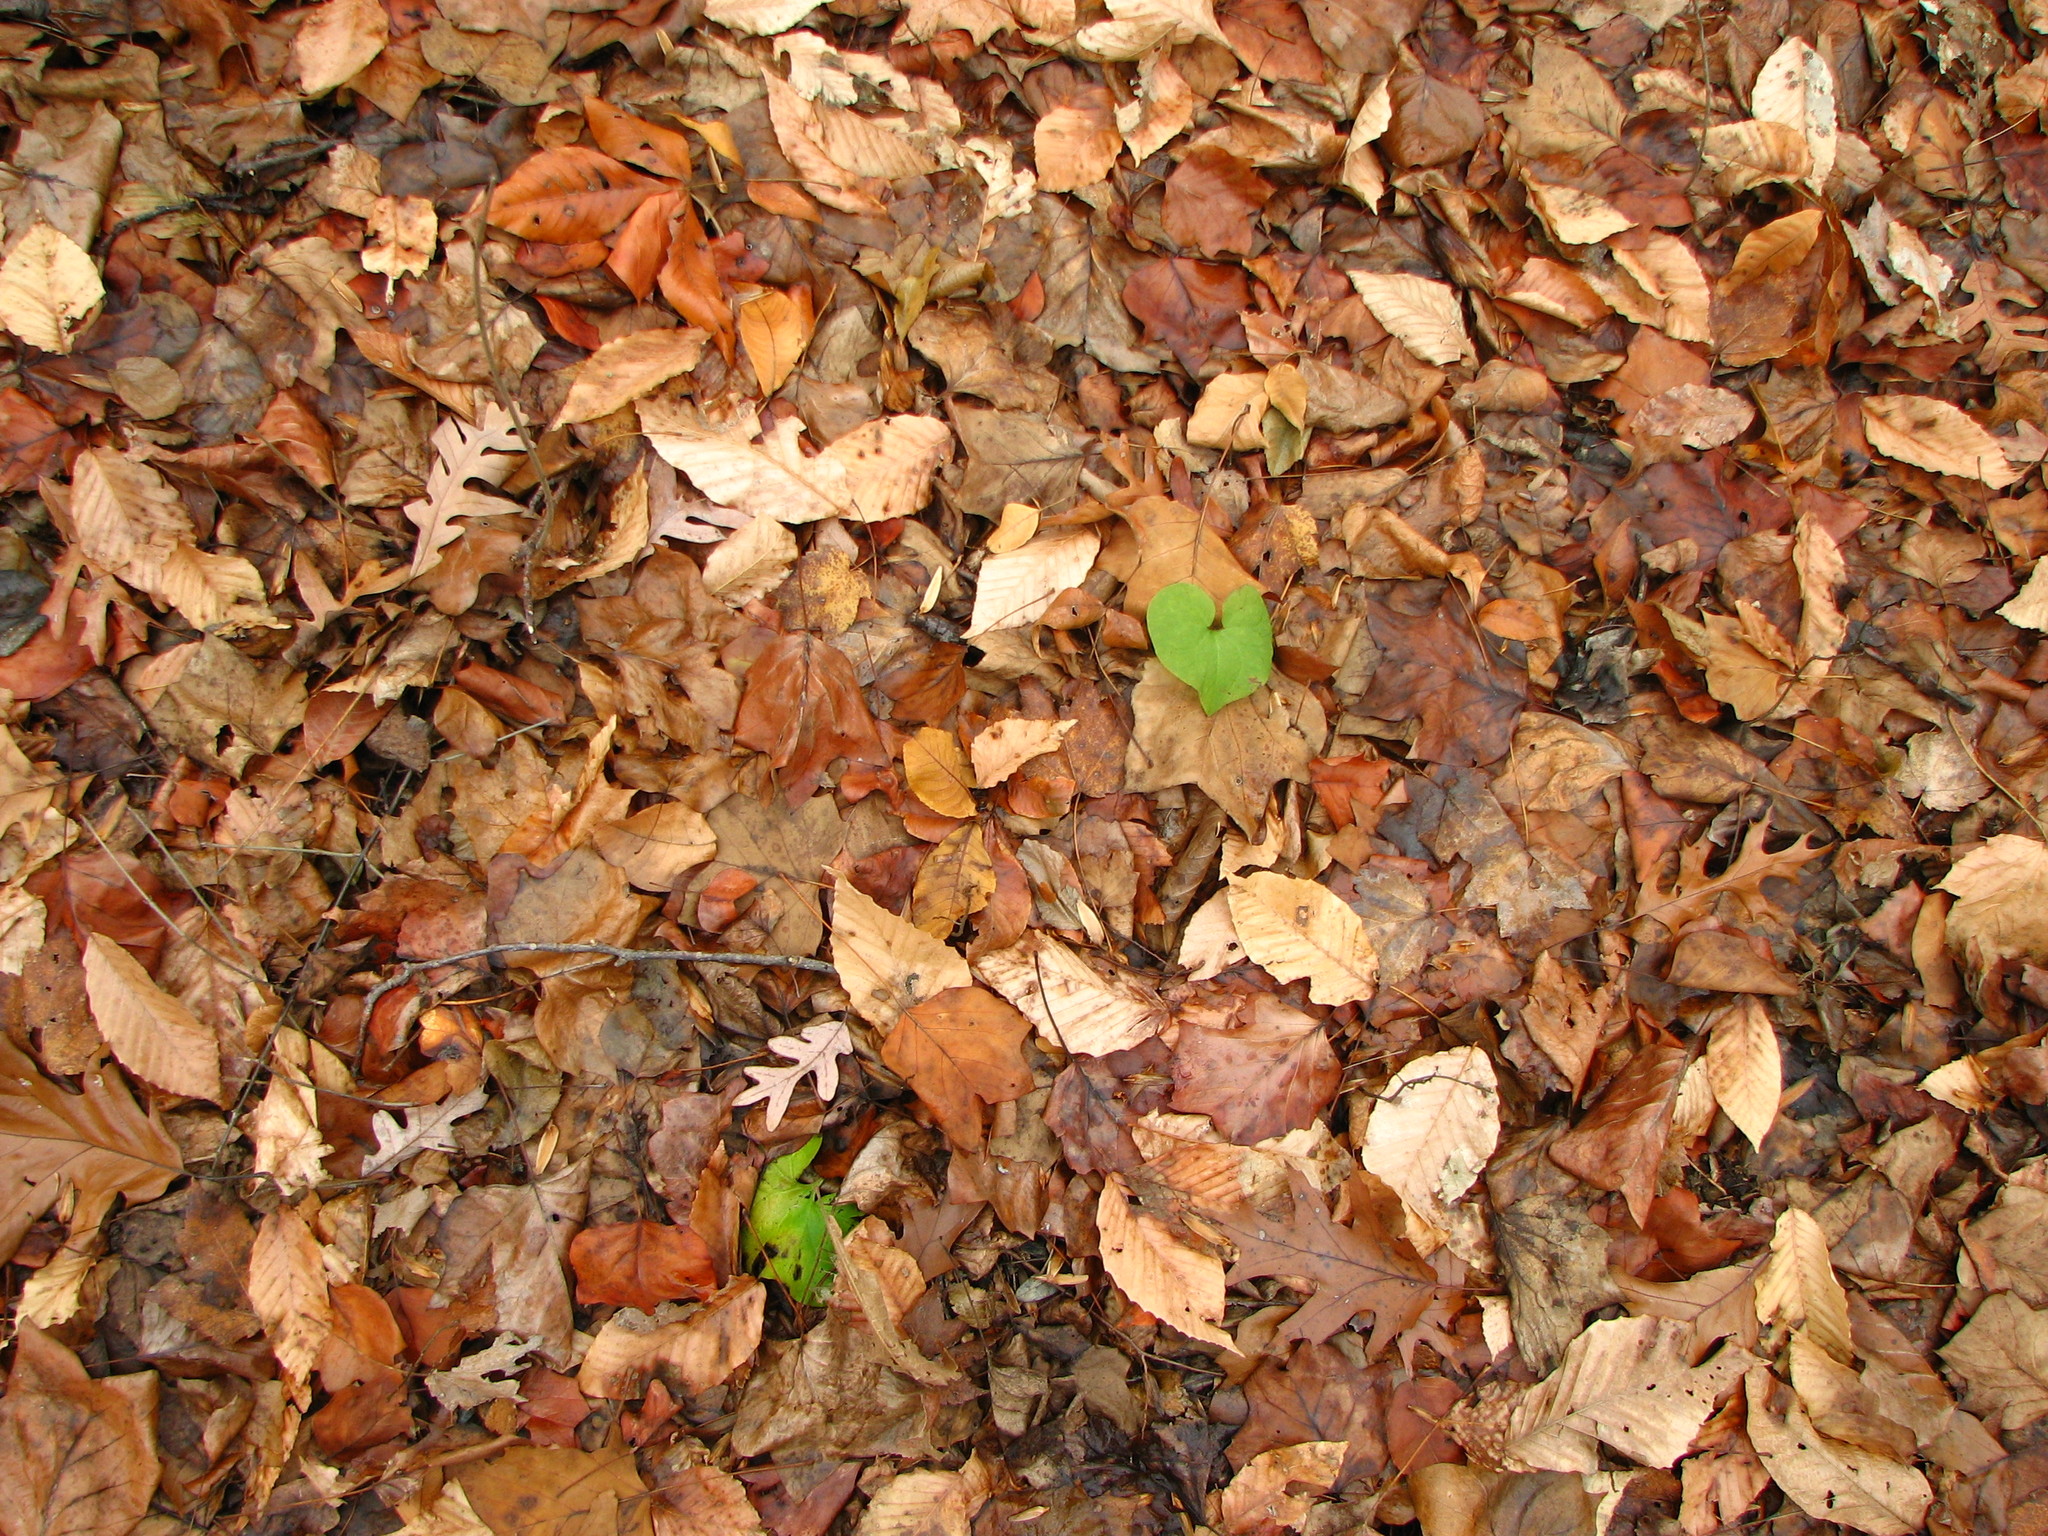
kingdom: Plantae
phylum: Tracheophyta
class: Magnoliopsida
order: Piperales
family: Aristolochiaceae
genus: Asarum
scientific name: Asarum canadense
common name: Wild ginger
